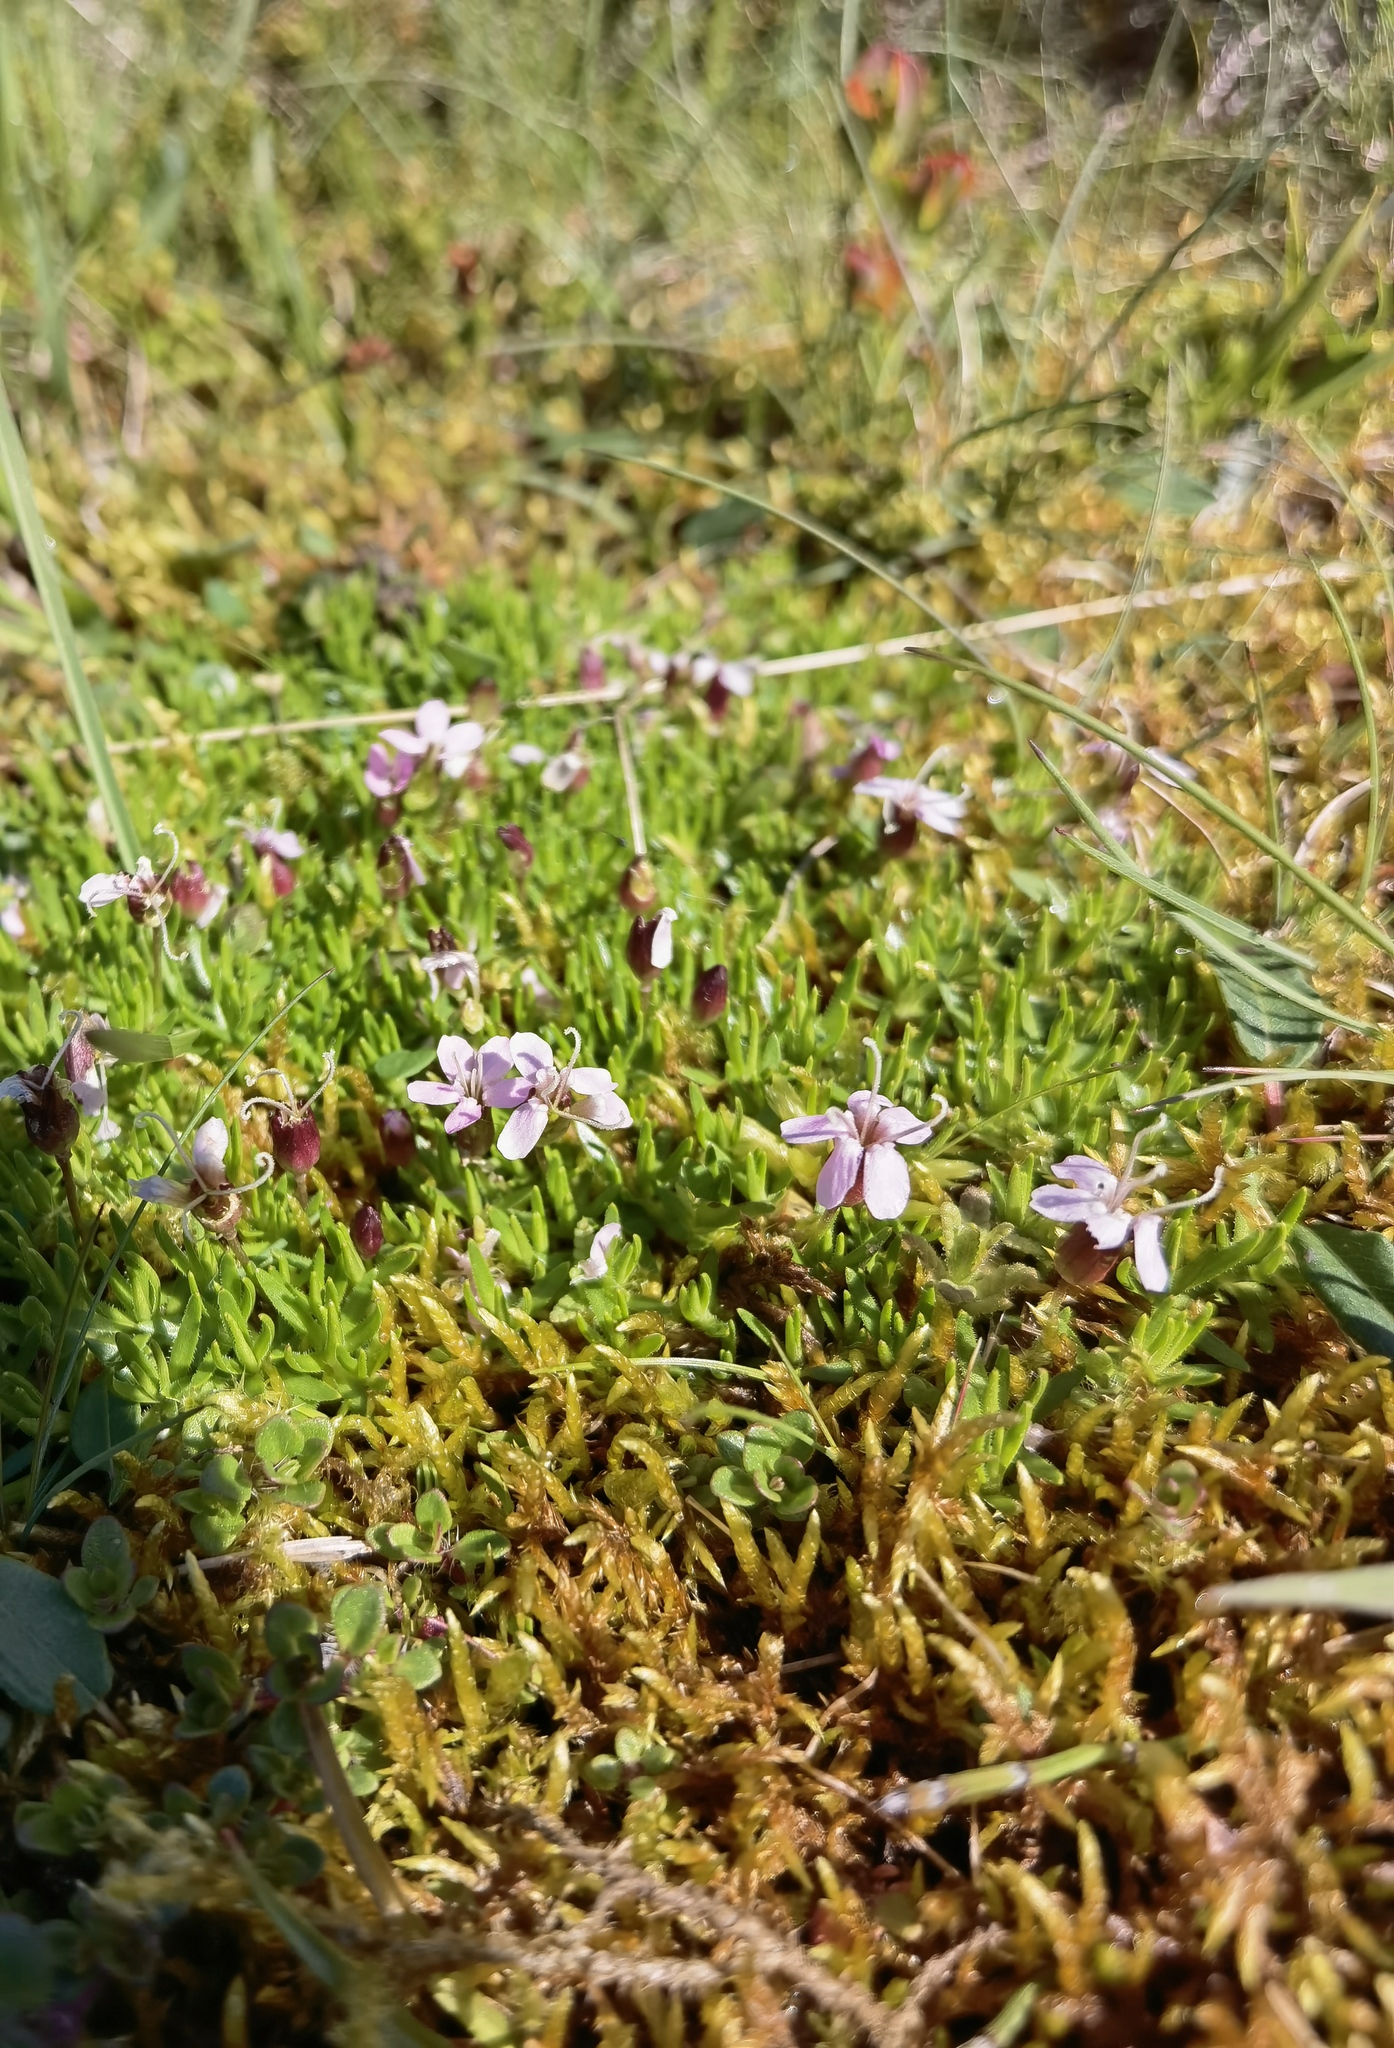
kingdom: Plantae
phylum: Tracheophyta
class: Magnoliopsida
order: Caryophyllales
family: Caryophyllaceae
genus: Silene
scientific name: Silene acaulis
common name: Moss campion
